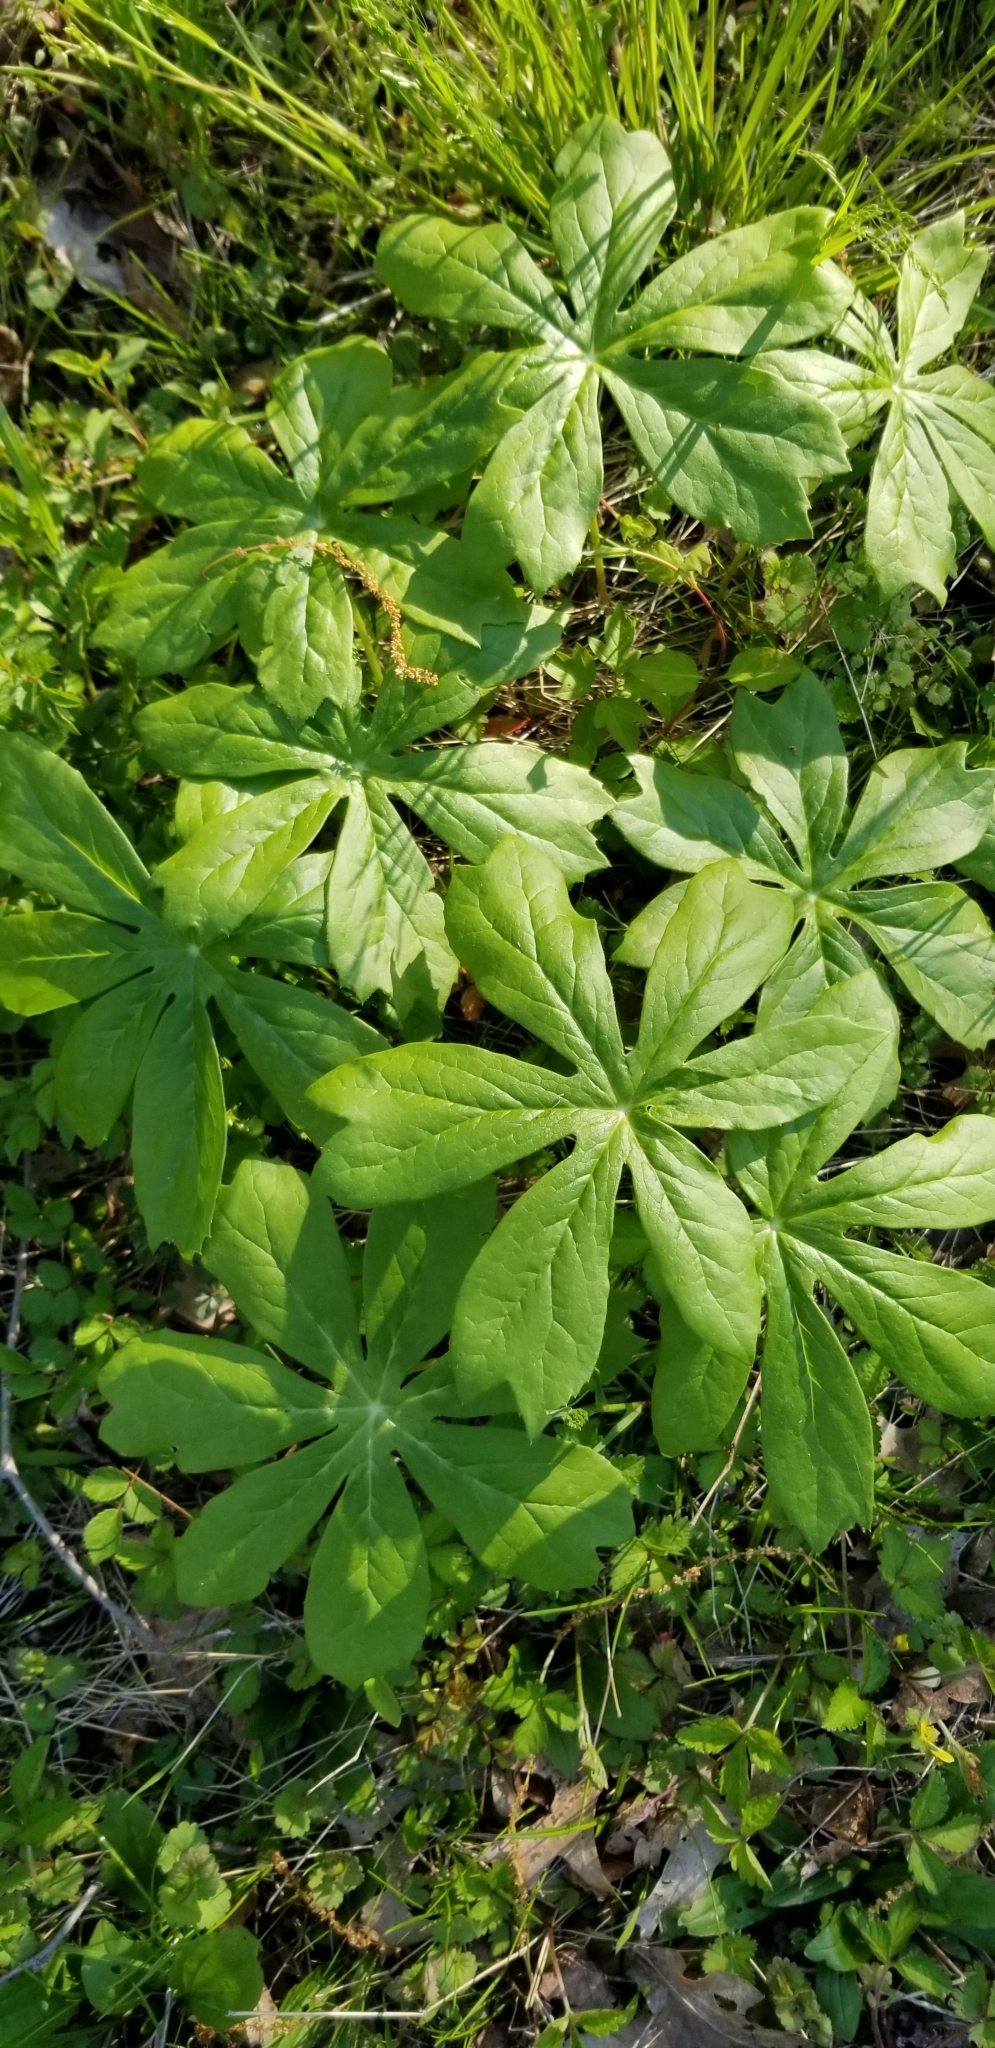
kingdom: Plantae
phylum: Tracheophyta
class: Magnoliopsida
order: Ranunculales
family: Berberidaceae
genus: Podophyllum
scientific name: Podophyllum peltatum
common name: Wild mandrake
